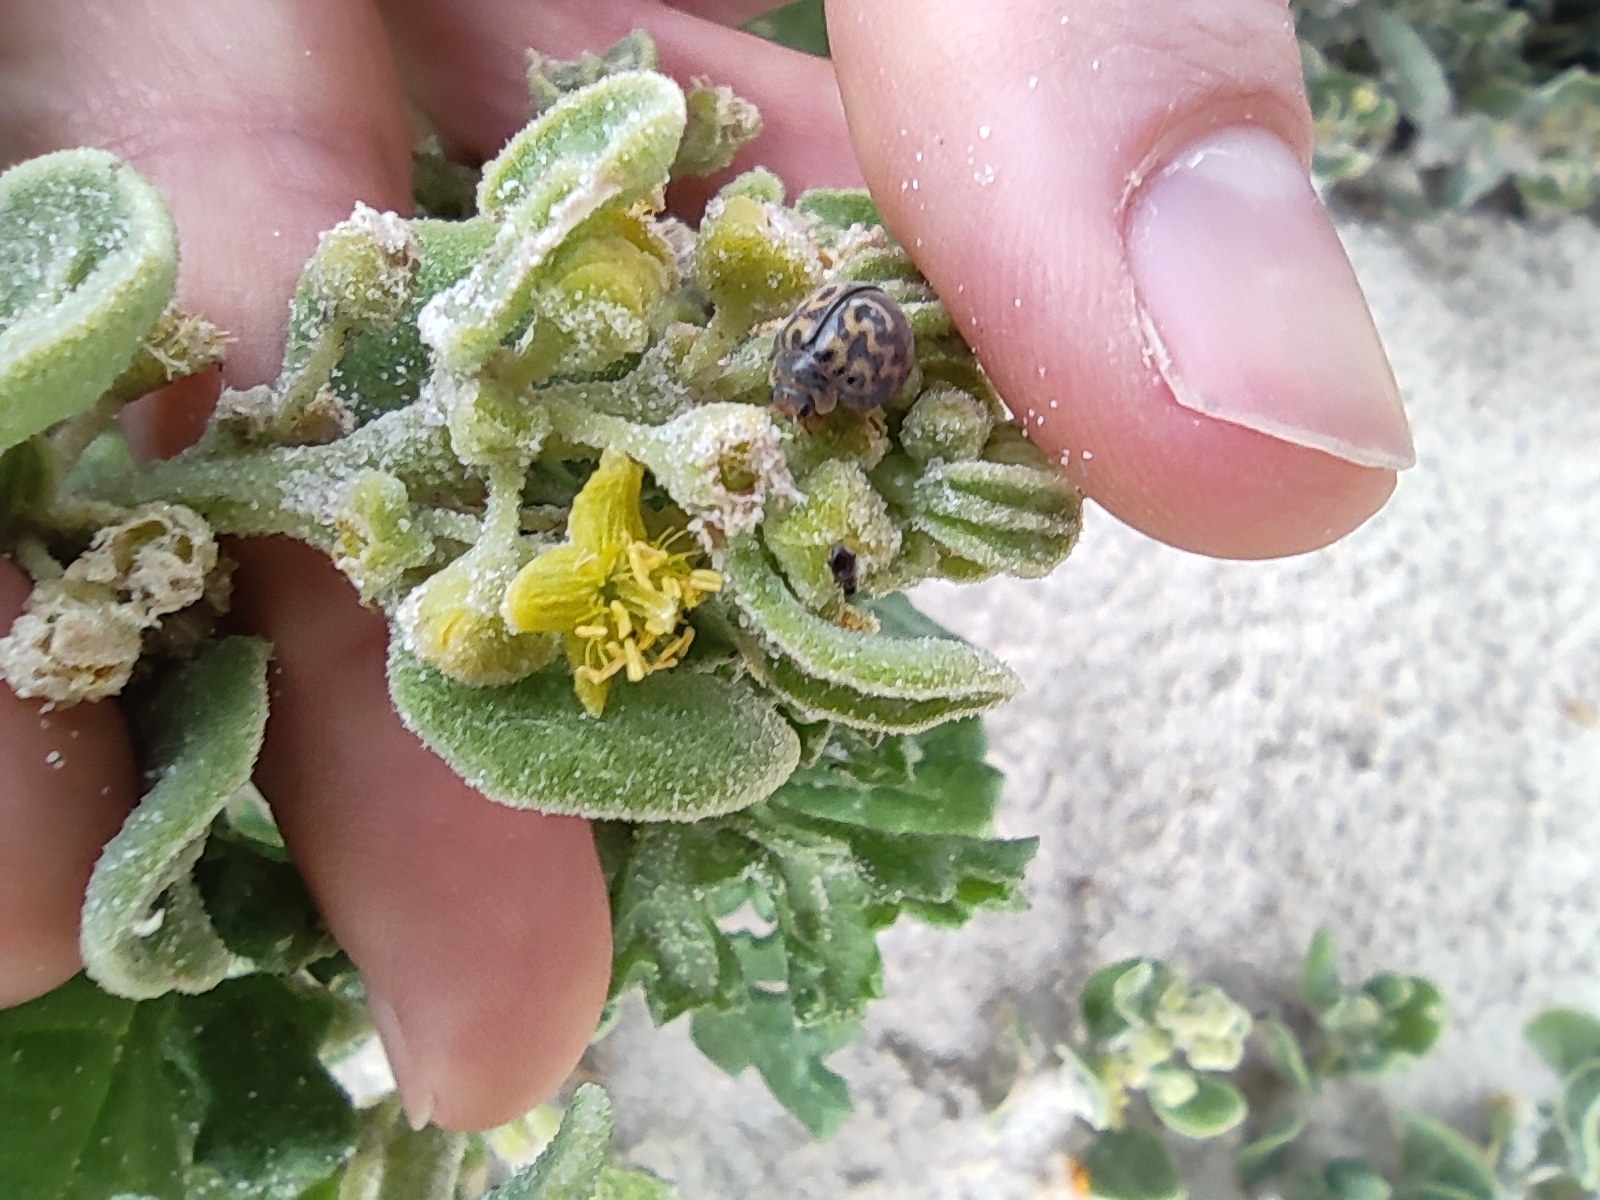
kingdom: Animalia
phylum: Arthropoda
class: Insecta
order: Lepidoptera
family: Geometridae
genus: Afrocleta
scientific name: Afrocleta
